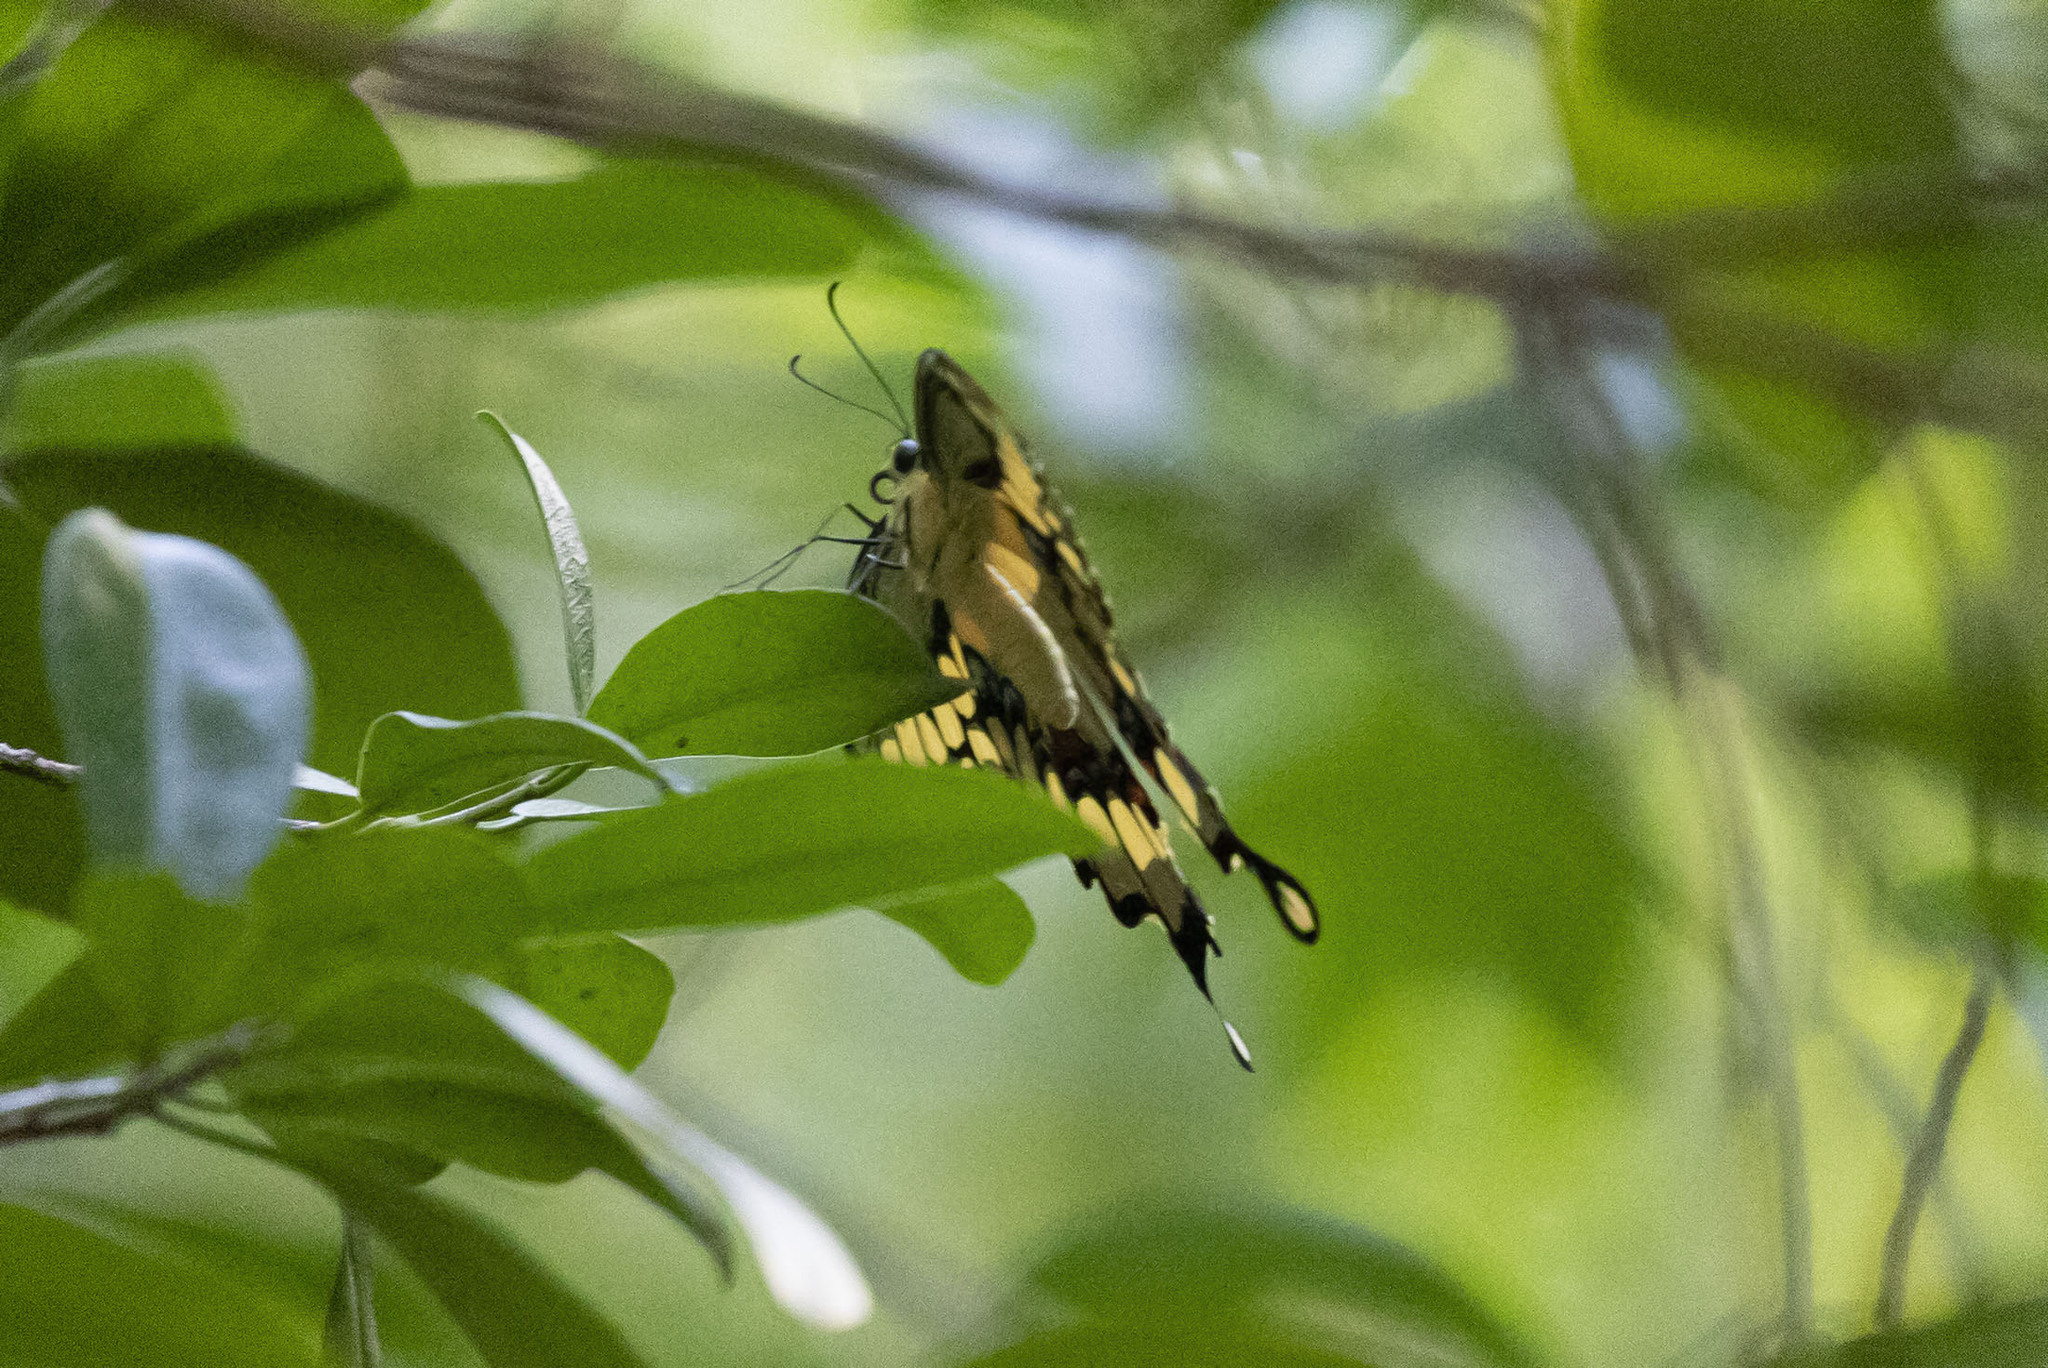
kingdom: Animalia
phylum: Arthropoda
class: Insecta
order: Lepidoptera
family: Papilionidae
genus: Papilio
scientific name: Papilio cresphontes
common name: Giant swallowtail
